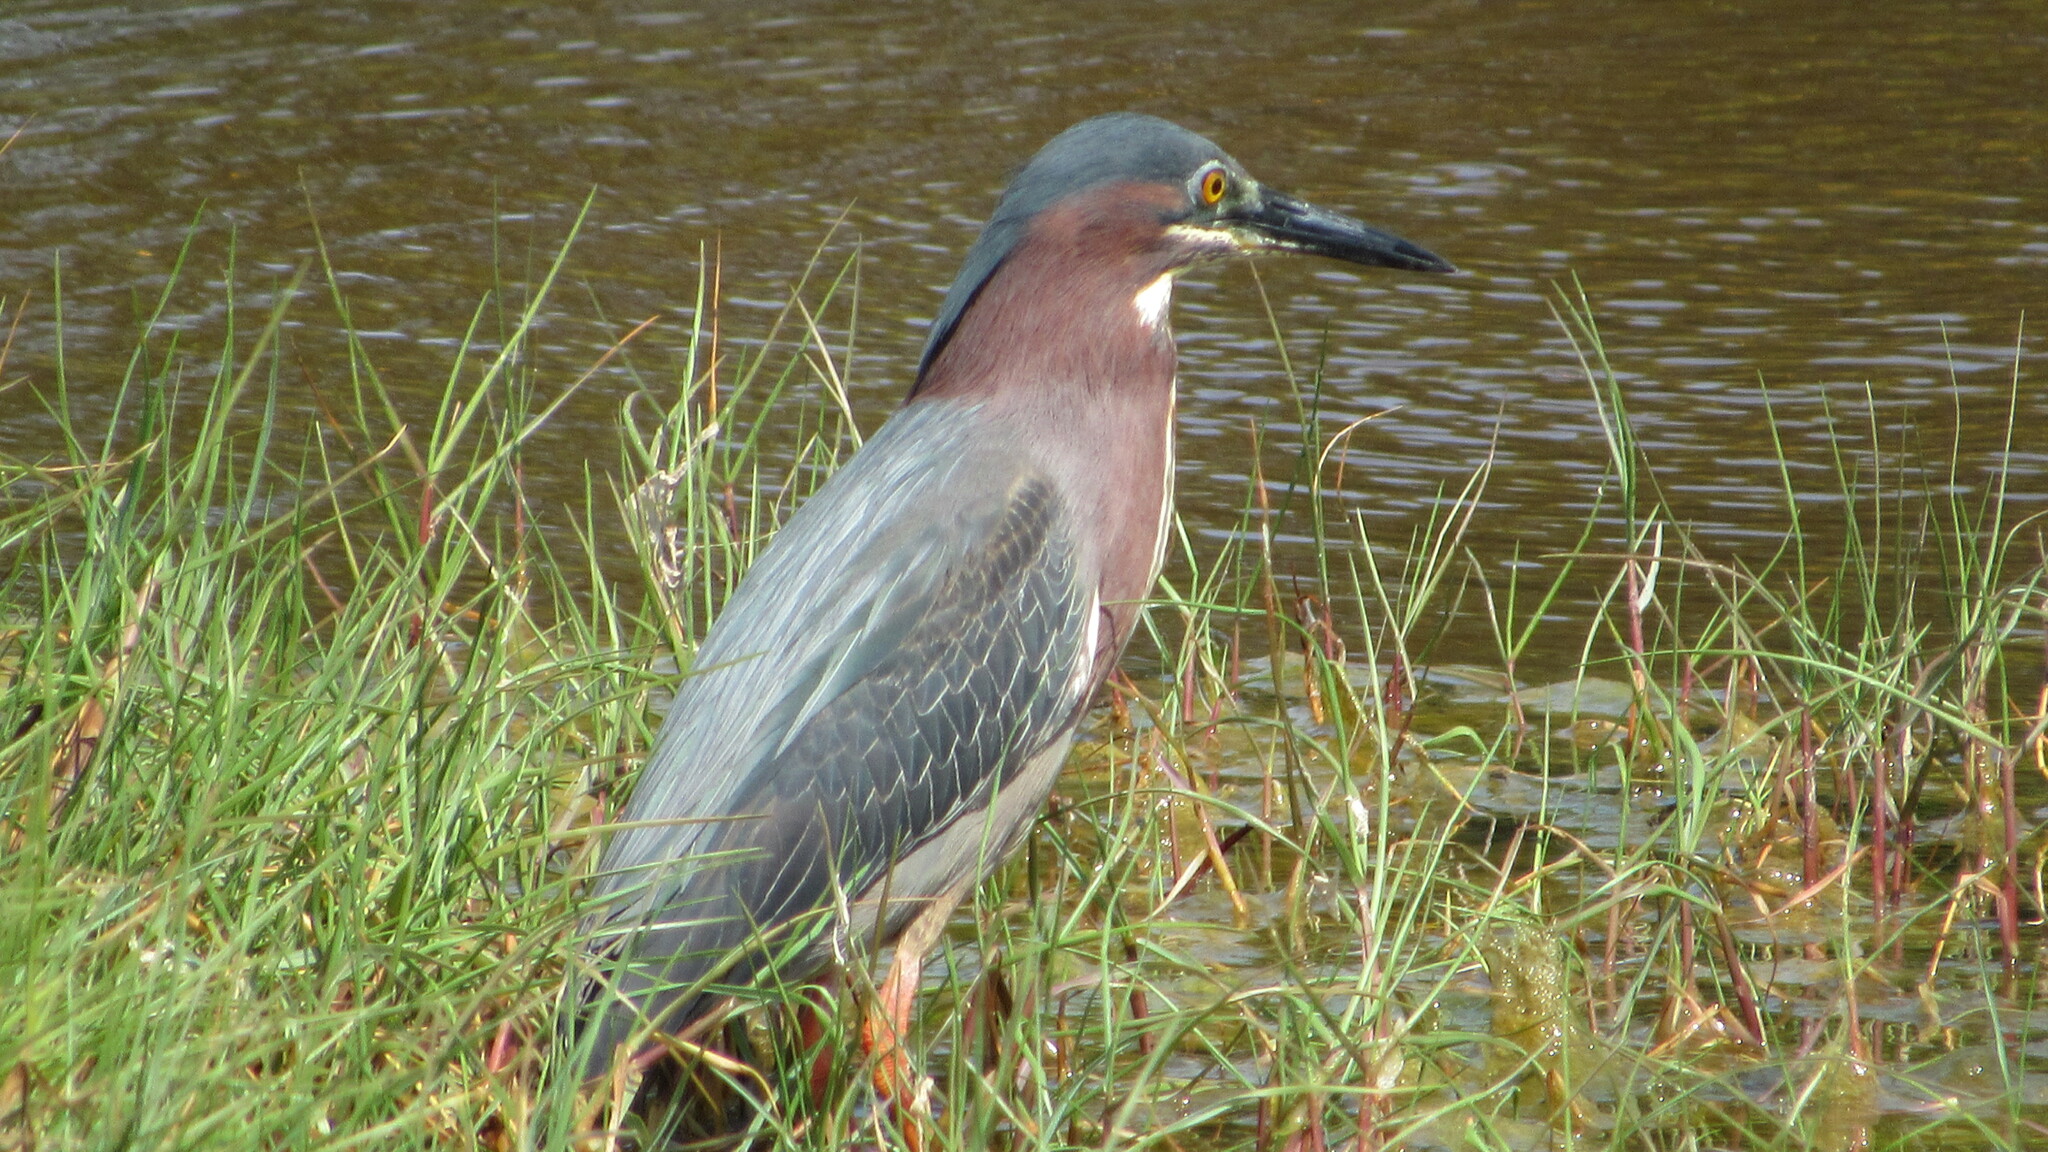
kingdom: Animalia
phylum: Chordata
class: Aves
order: Pelecaniformes
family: Ardeidae
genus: Butorides
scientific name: Butorides virescens
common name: Green heron
